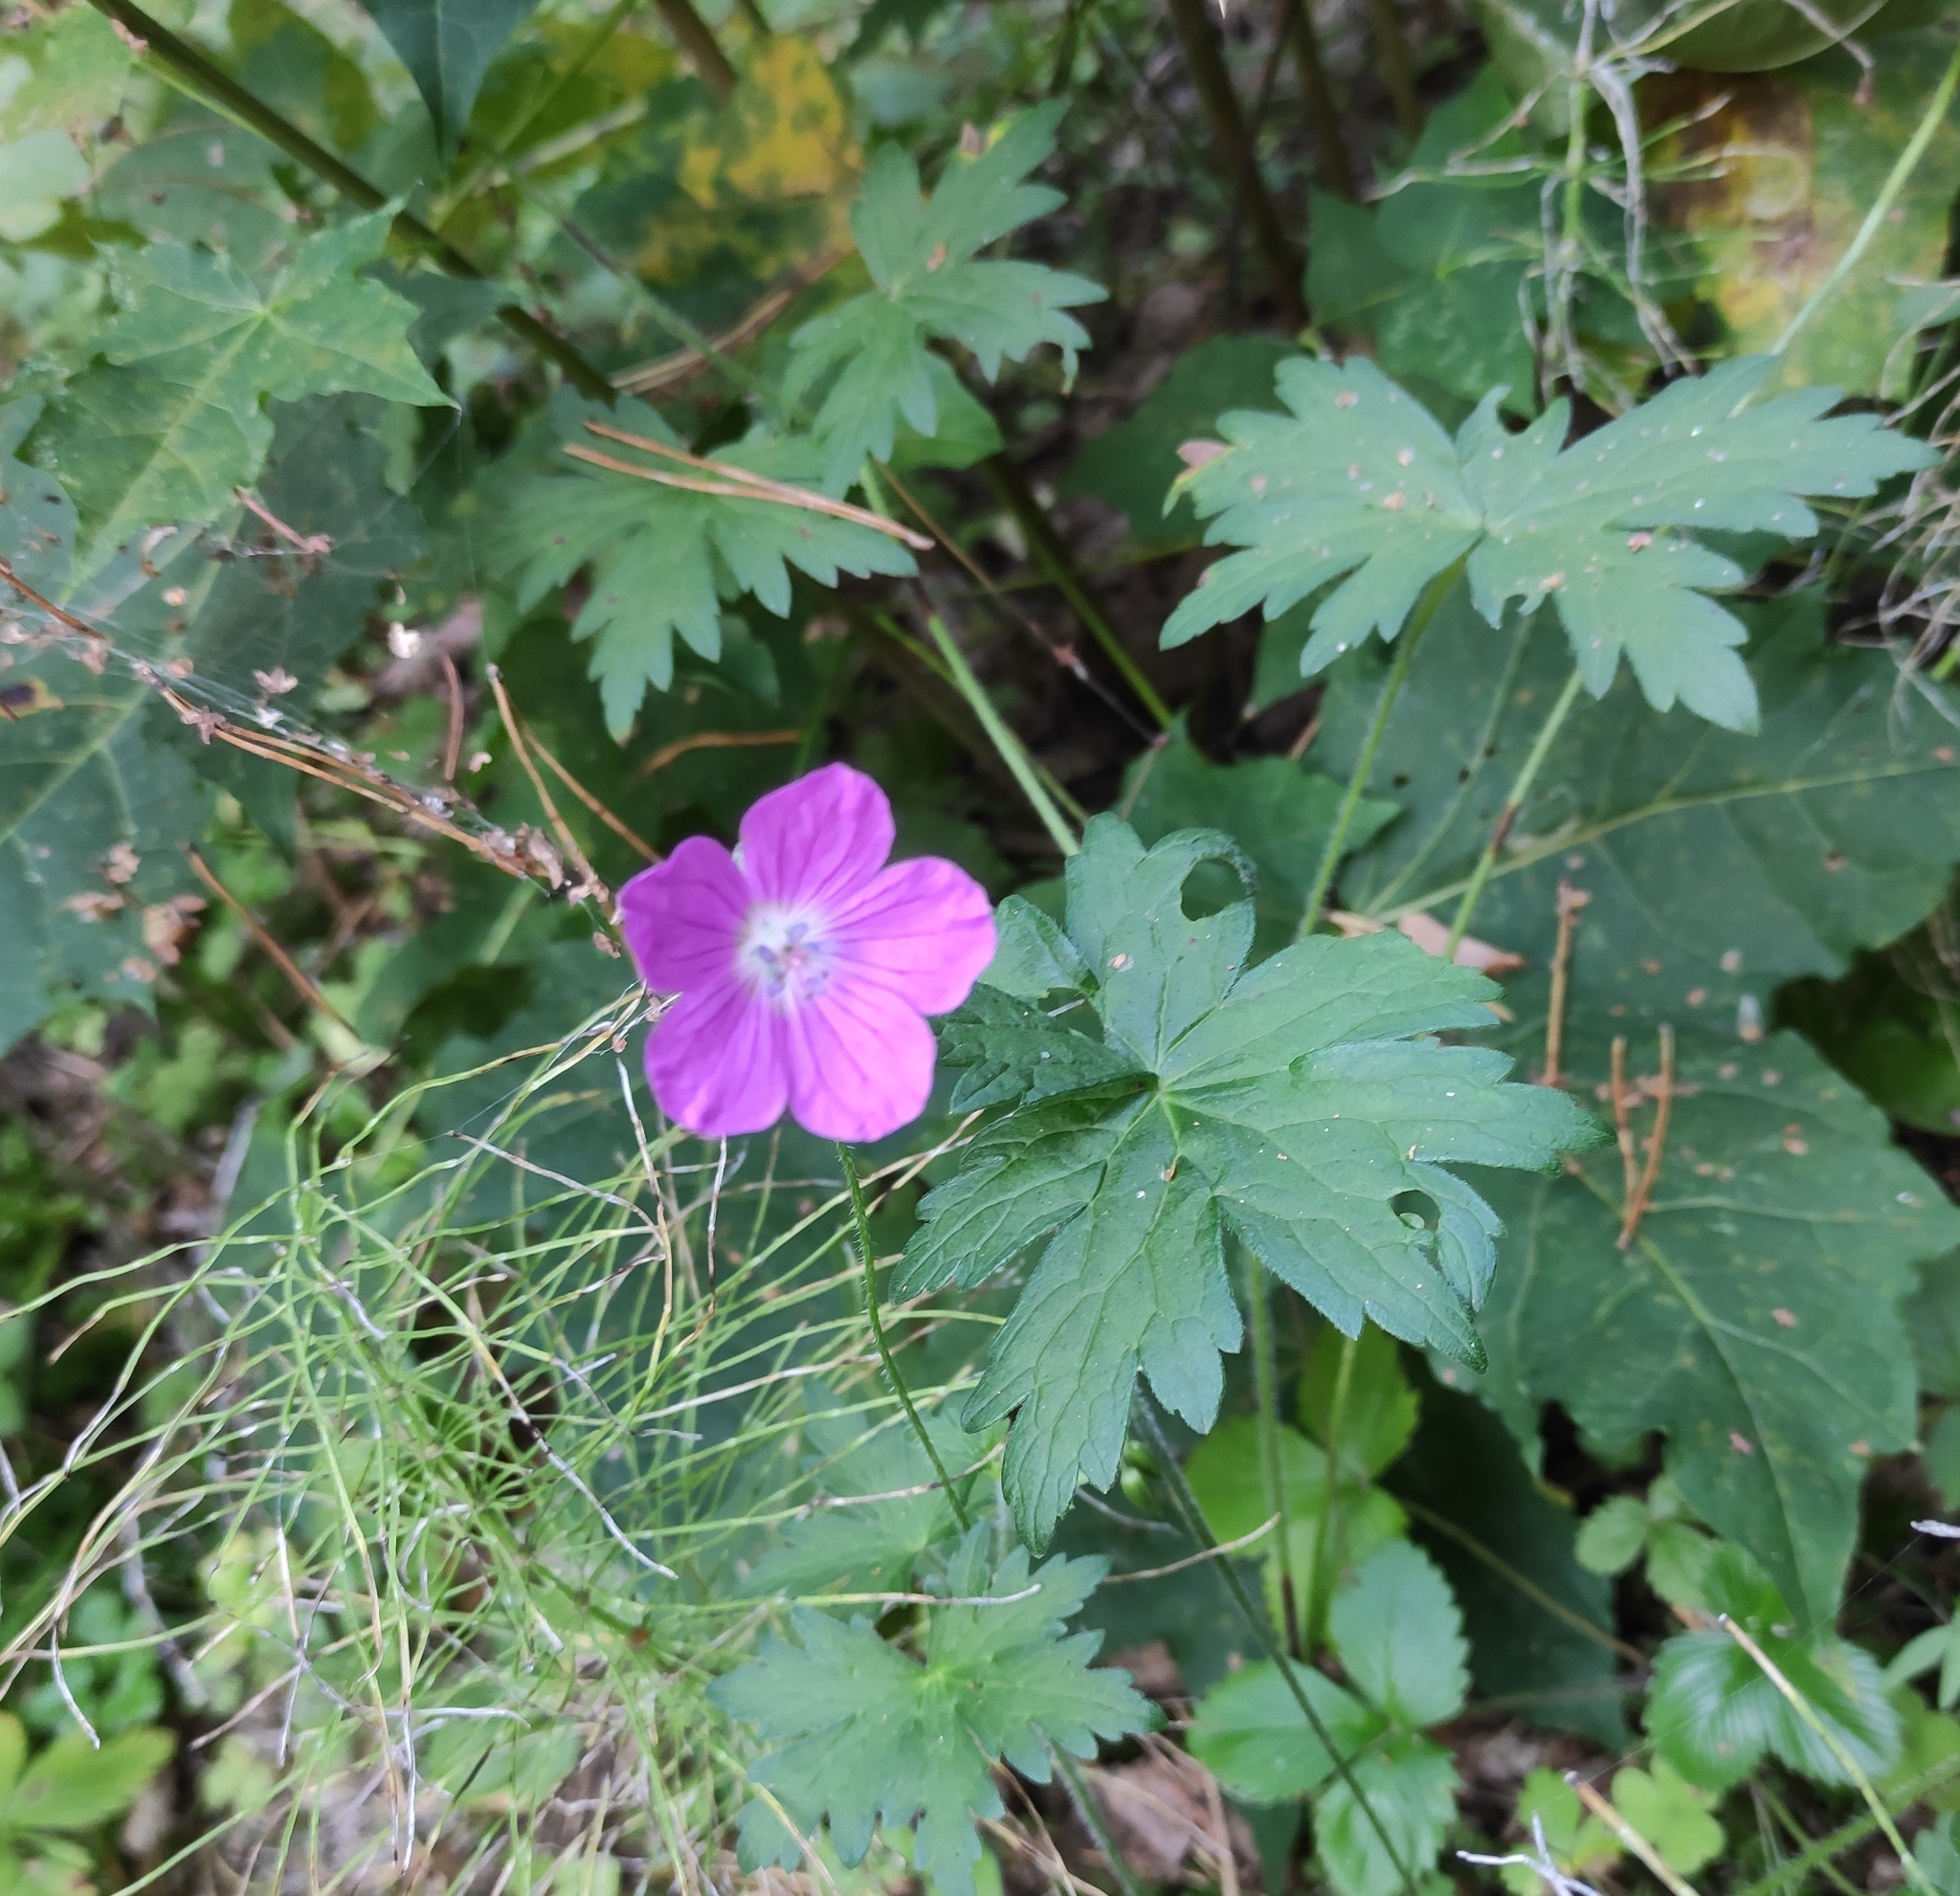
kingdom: Plantae
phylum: Tracheophyta
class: Magnoliopsida
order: Geraniales
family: Geraniaceae
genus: Geranium
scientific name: Geranium palustre
